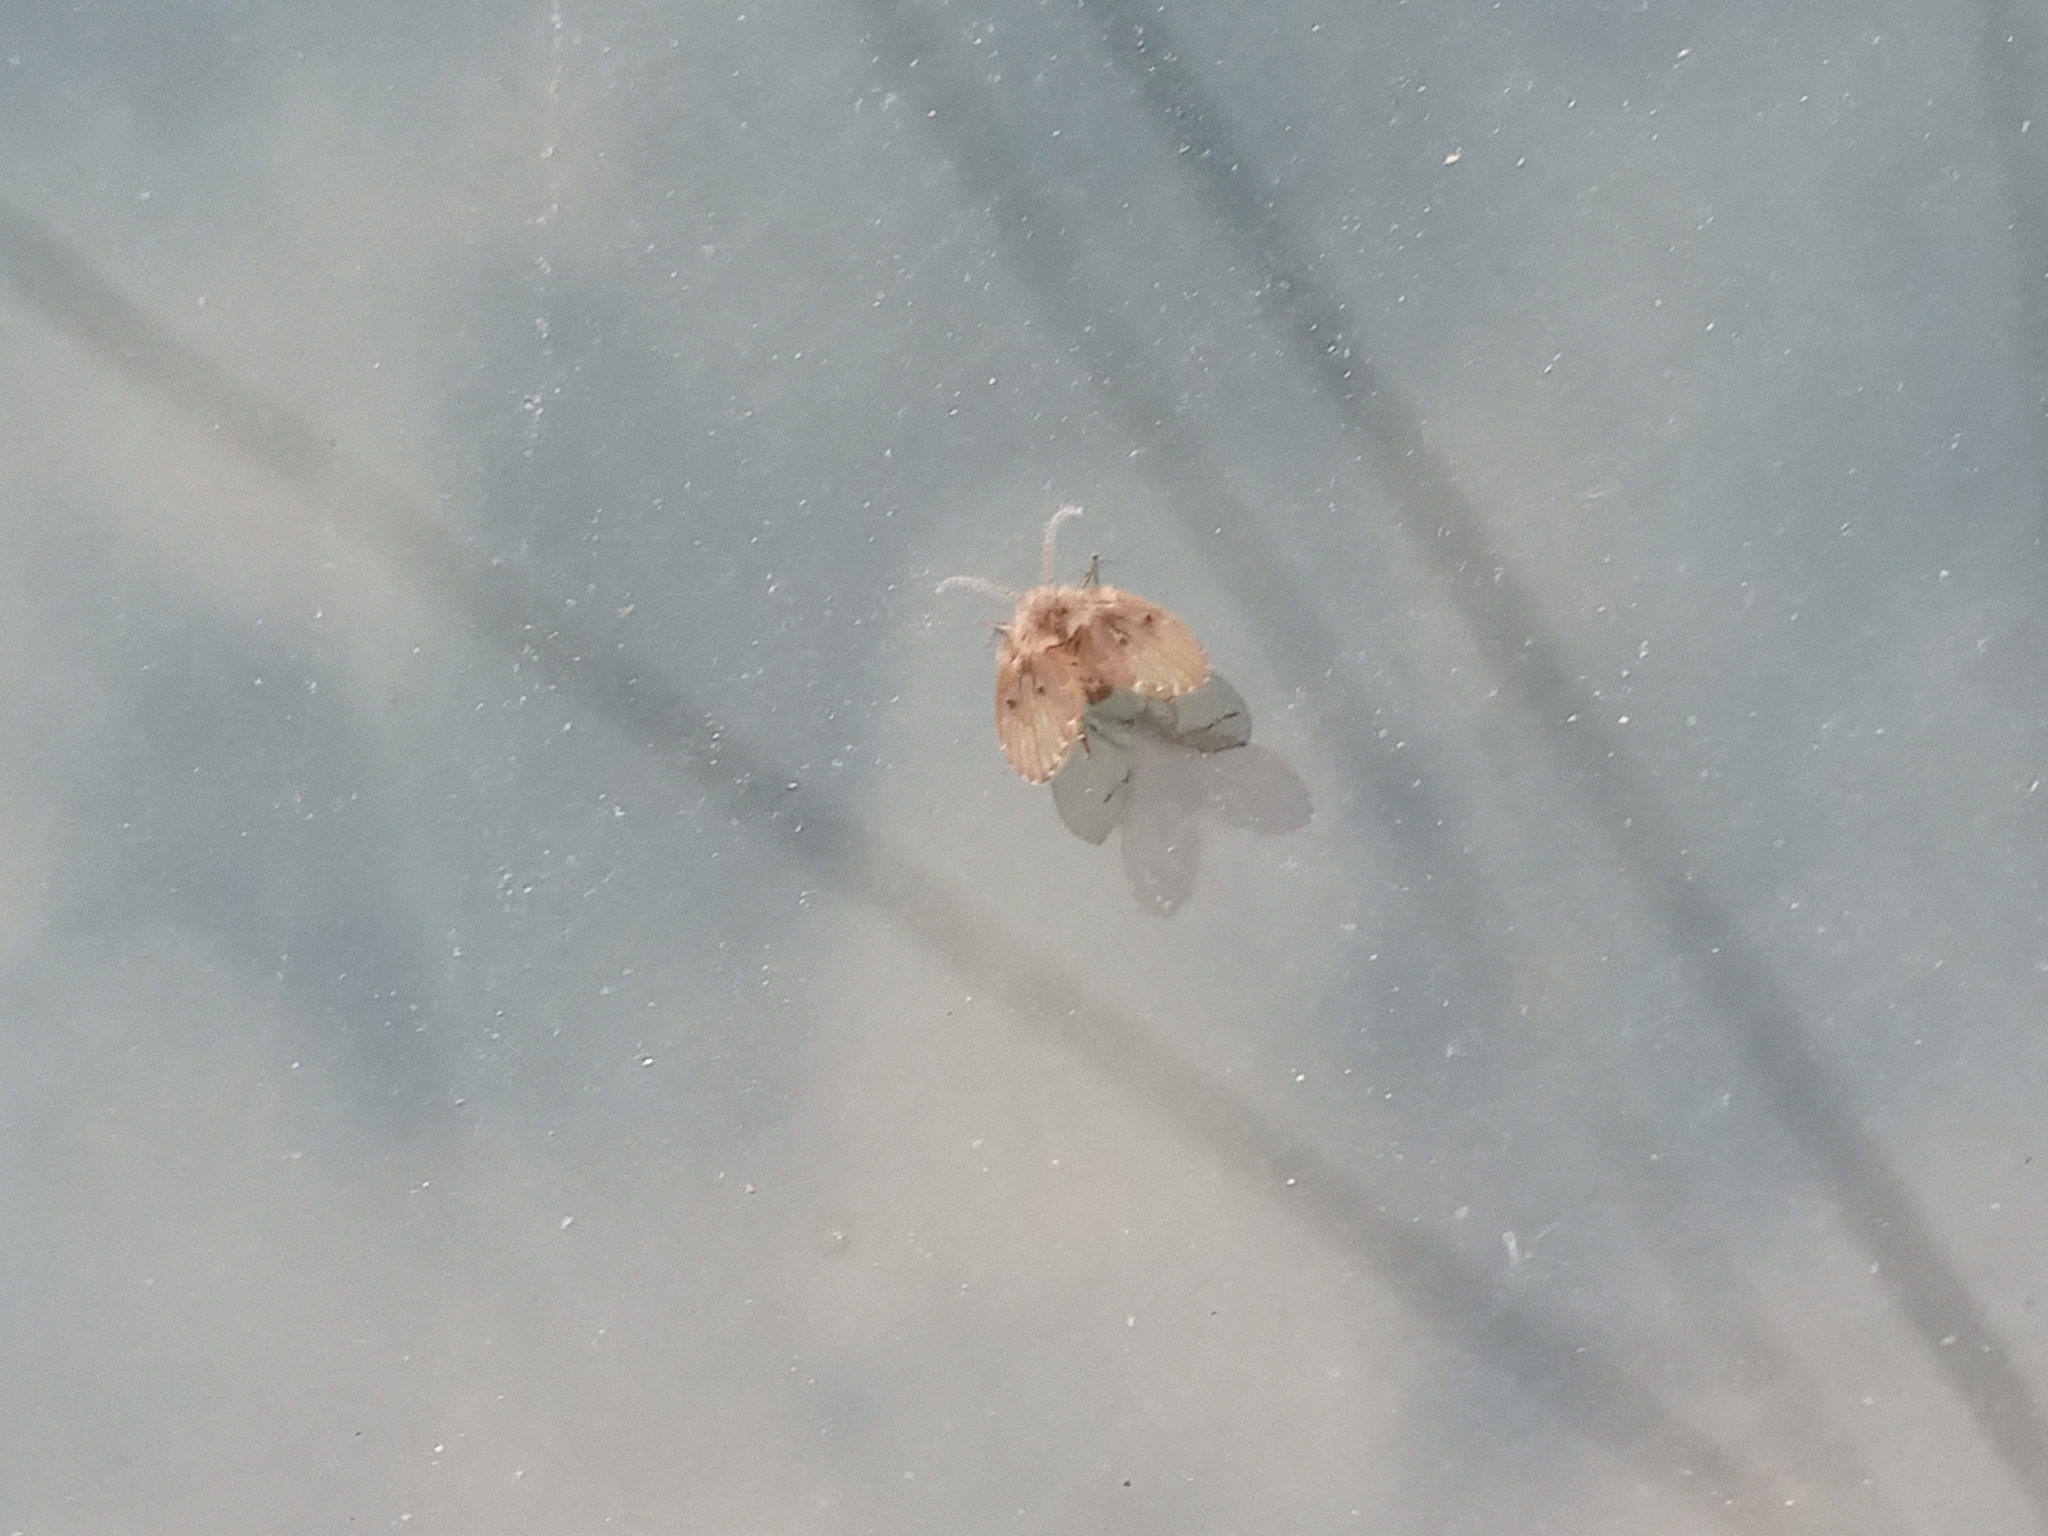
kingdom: Animalia
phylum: Arthropoda
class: Insecta
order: Diptera
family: Psychodidae
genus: Clogmia
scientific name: Clogmia albipunctatus
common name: White-spotted moth fly
